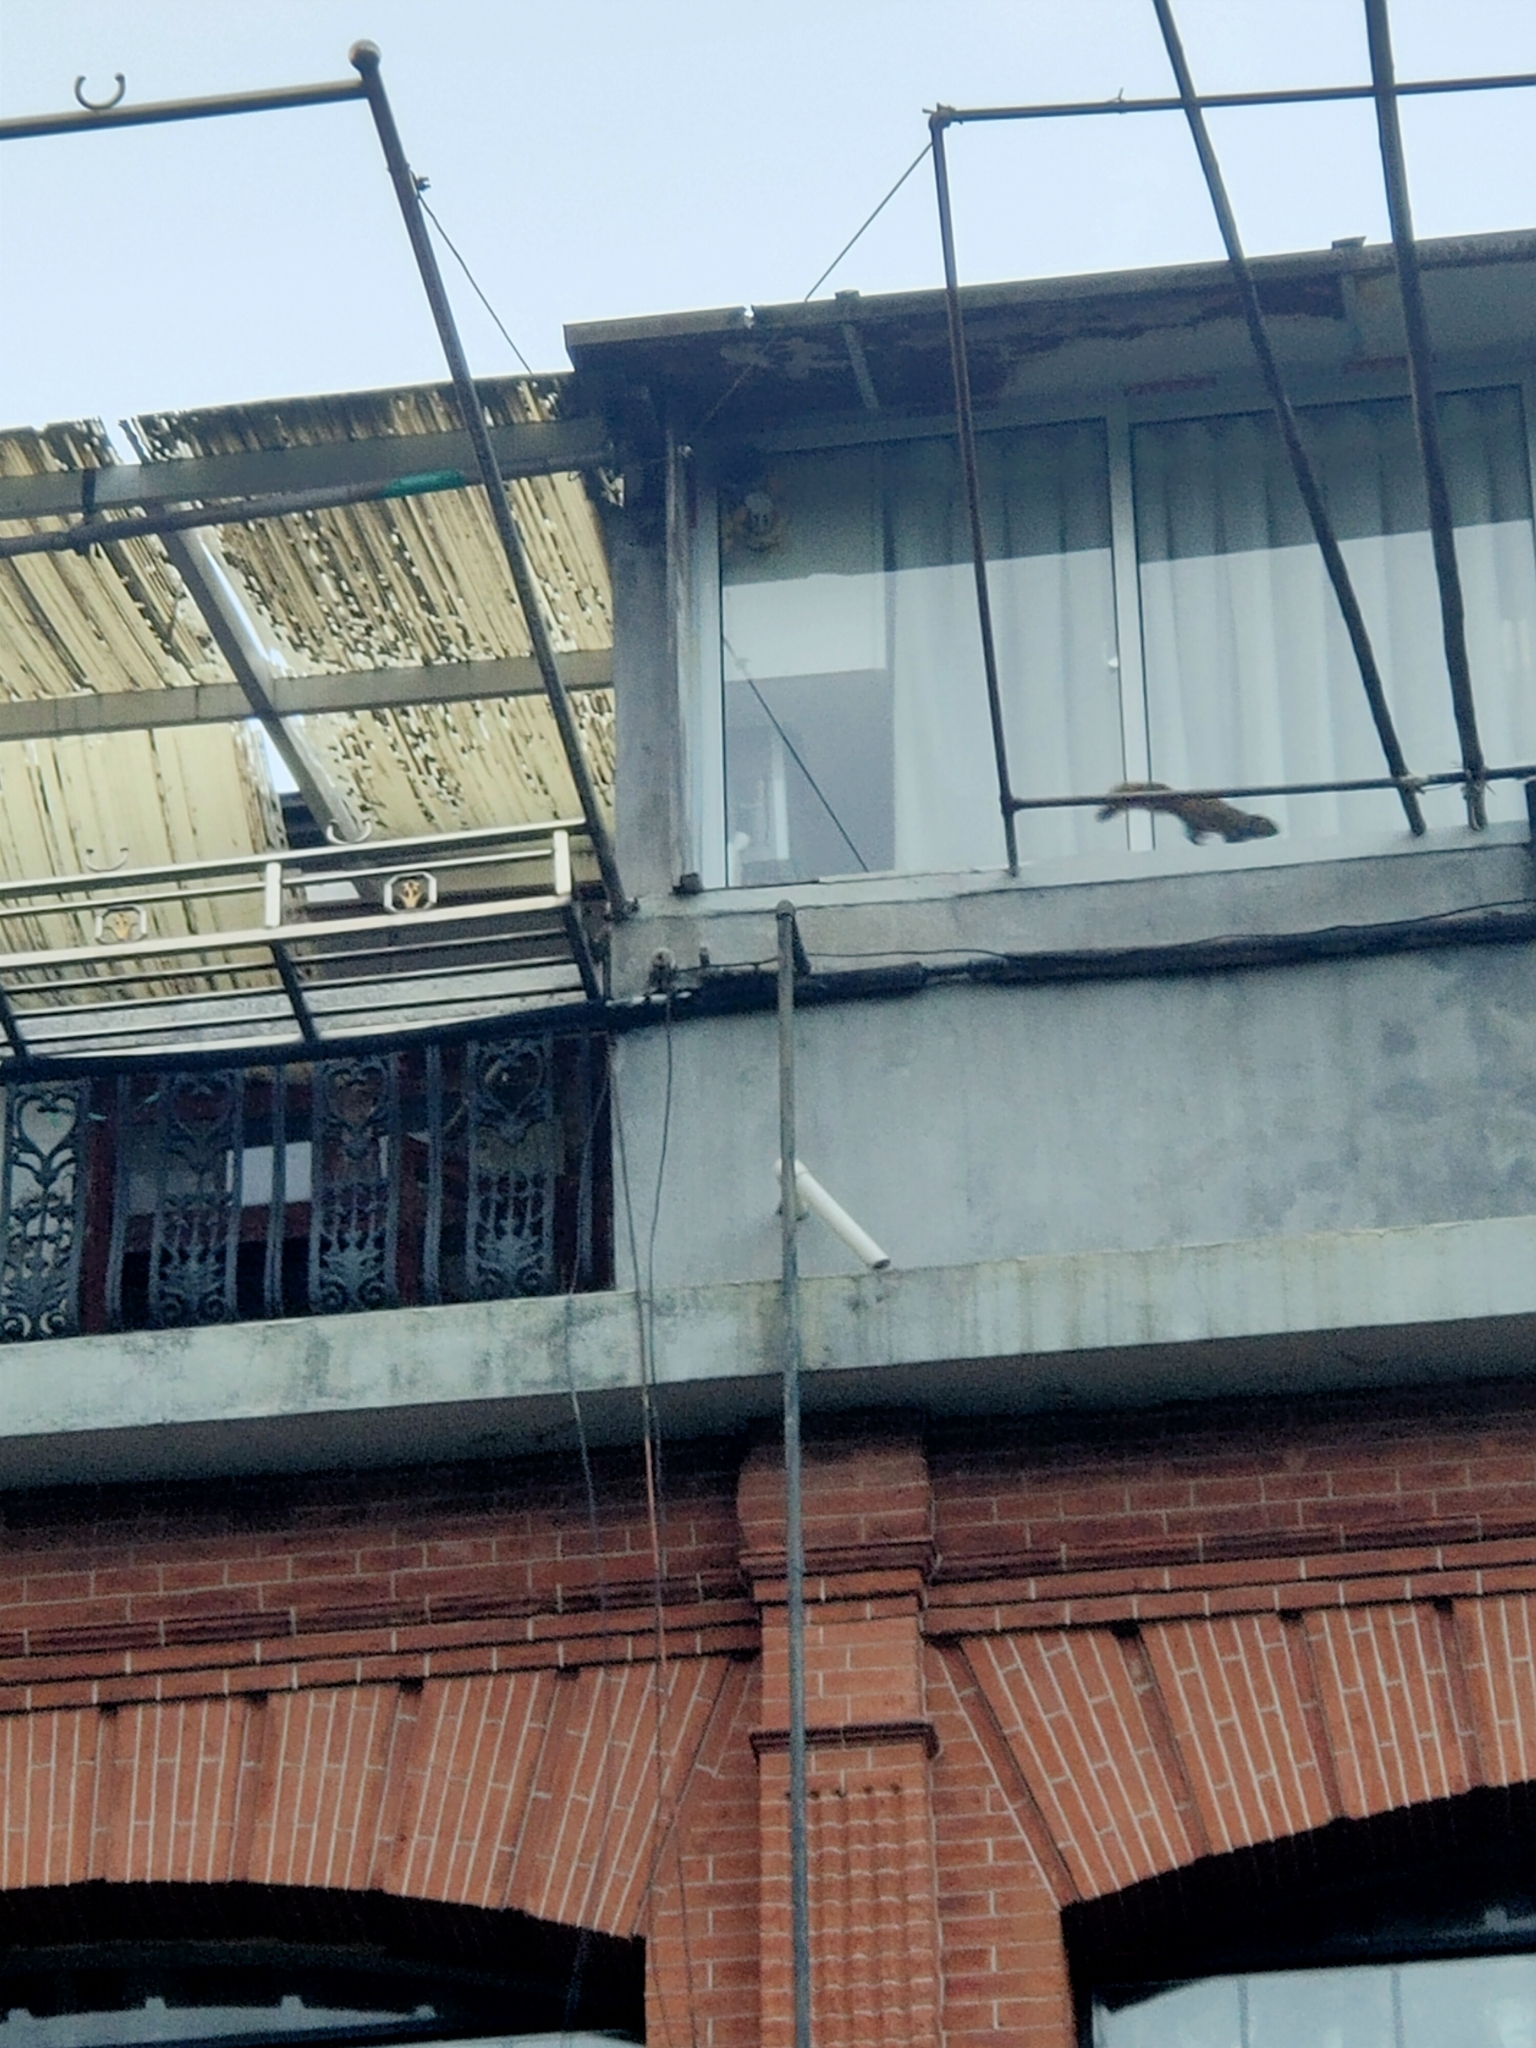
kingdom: Animalia
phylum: Chordata
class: Mammalia
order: Rodentia
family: Sciuridae
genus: Callosciurus
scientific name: Callosciurus erythraeus
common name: Pallas's squirrel
